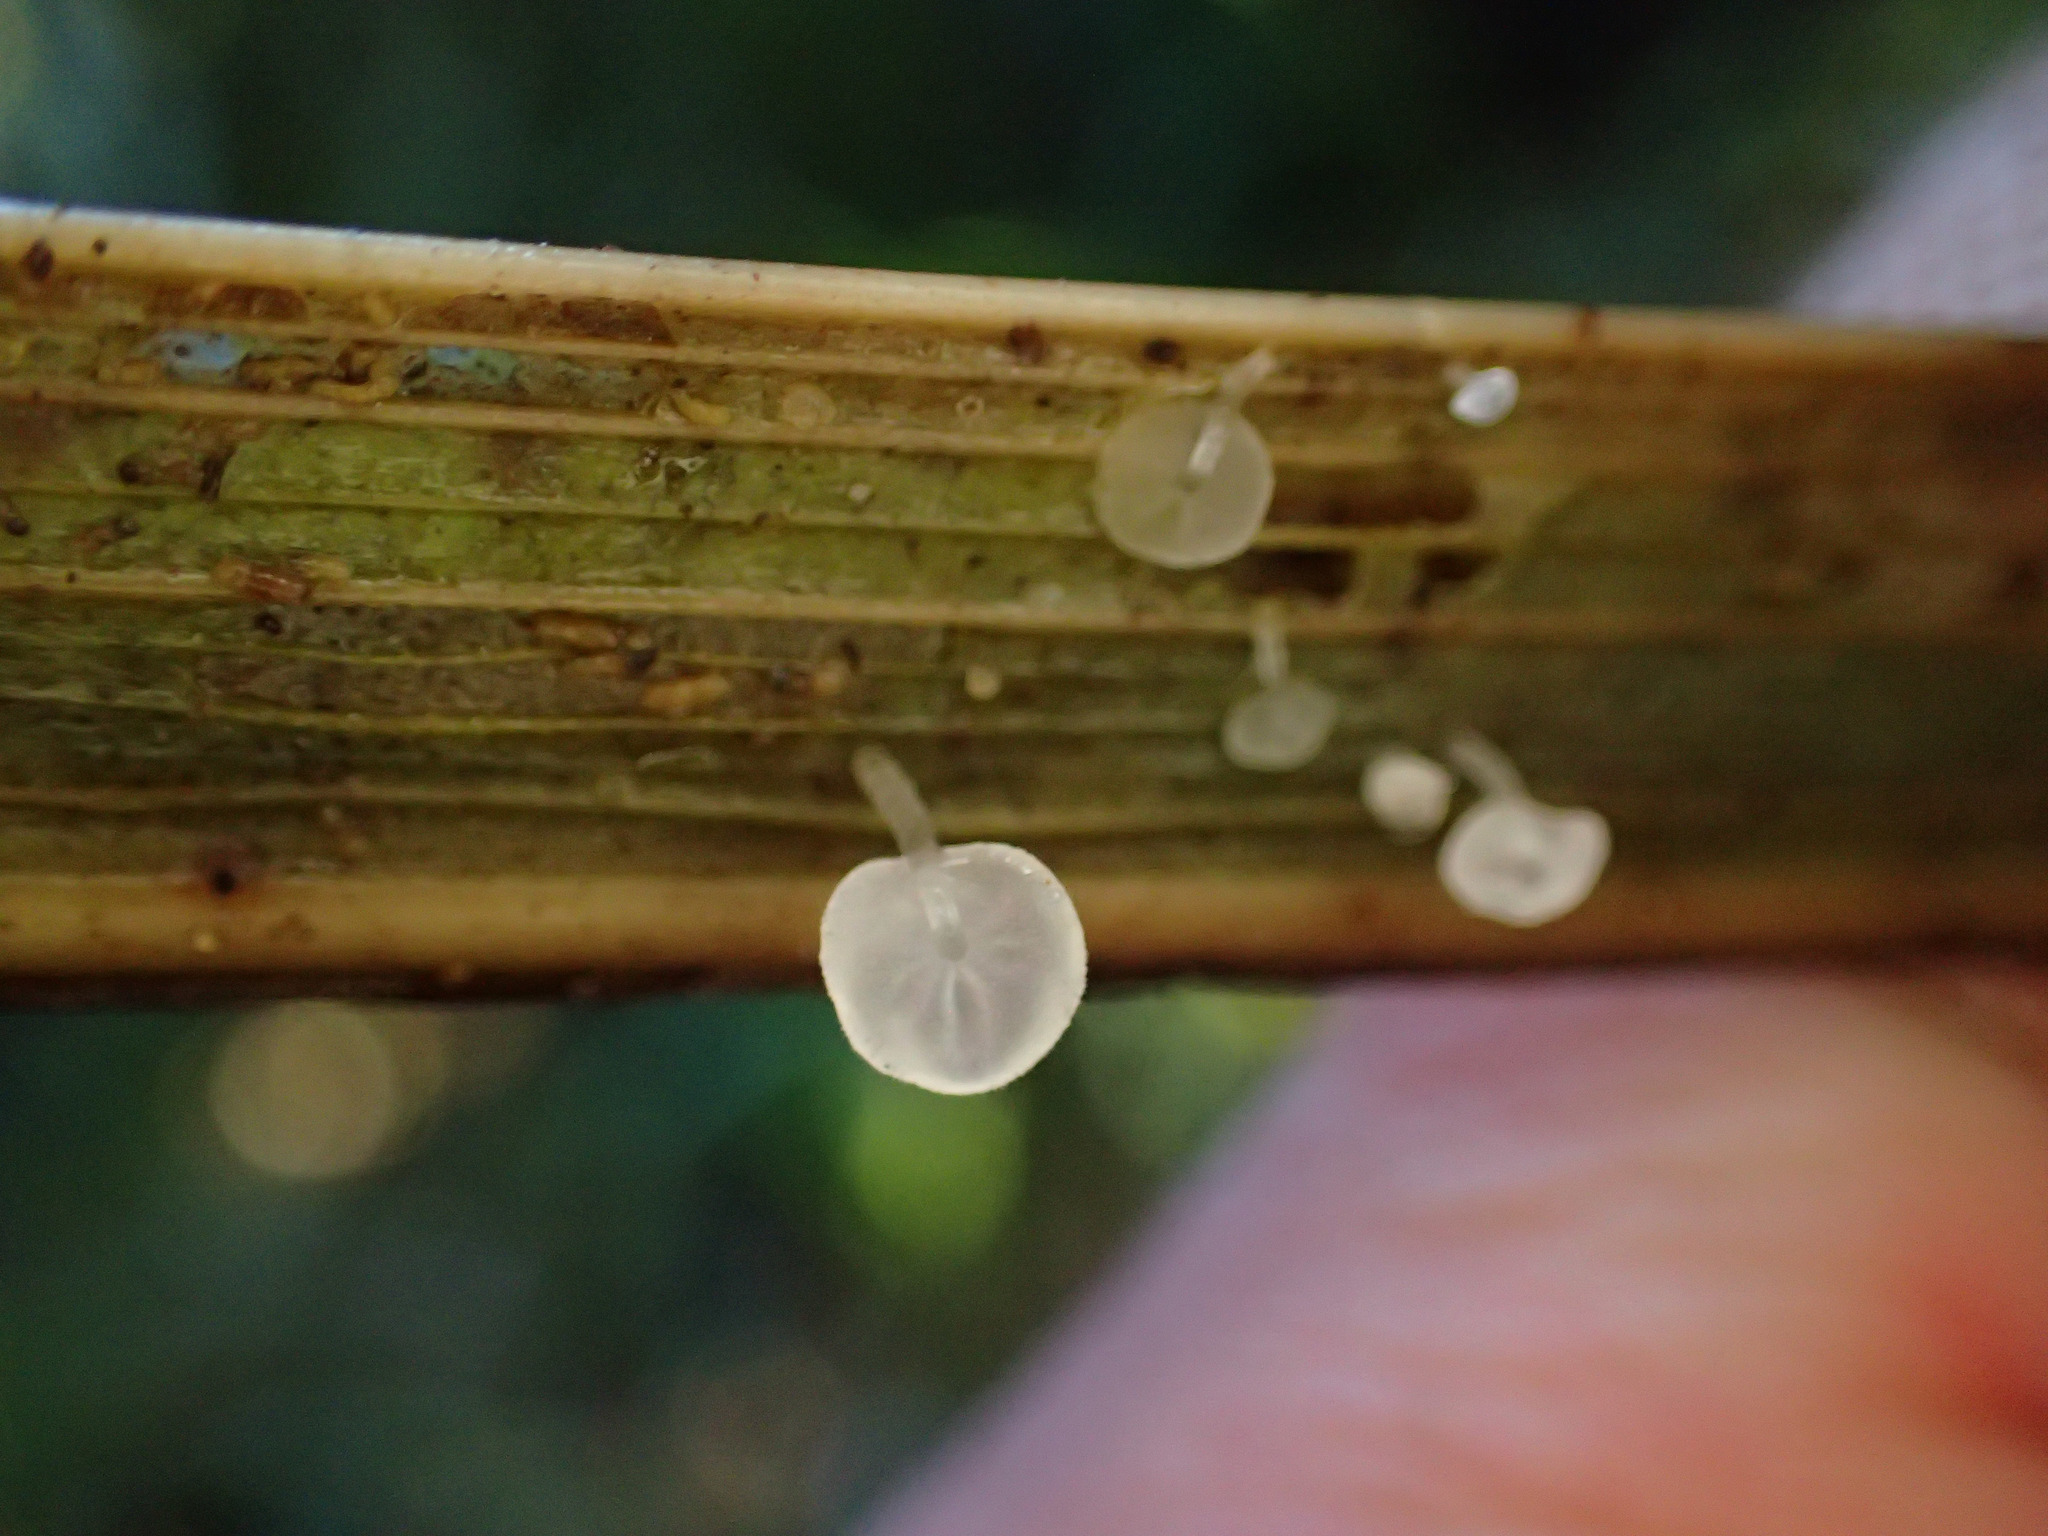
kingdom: Fungi
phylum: Basidiomycota
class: Agaricomycetes
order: Agaricales
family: Physalacriaceae
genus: Gloiocephala
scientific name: Gloiocephala phormiorum
